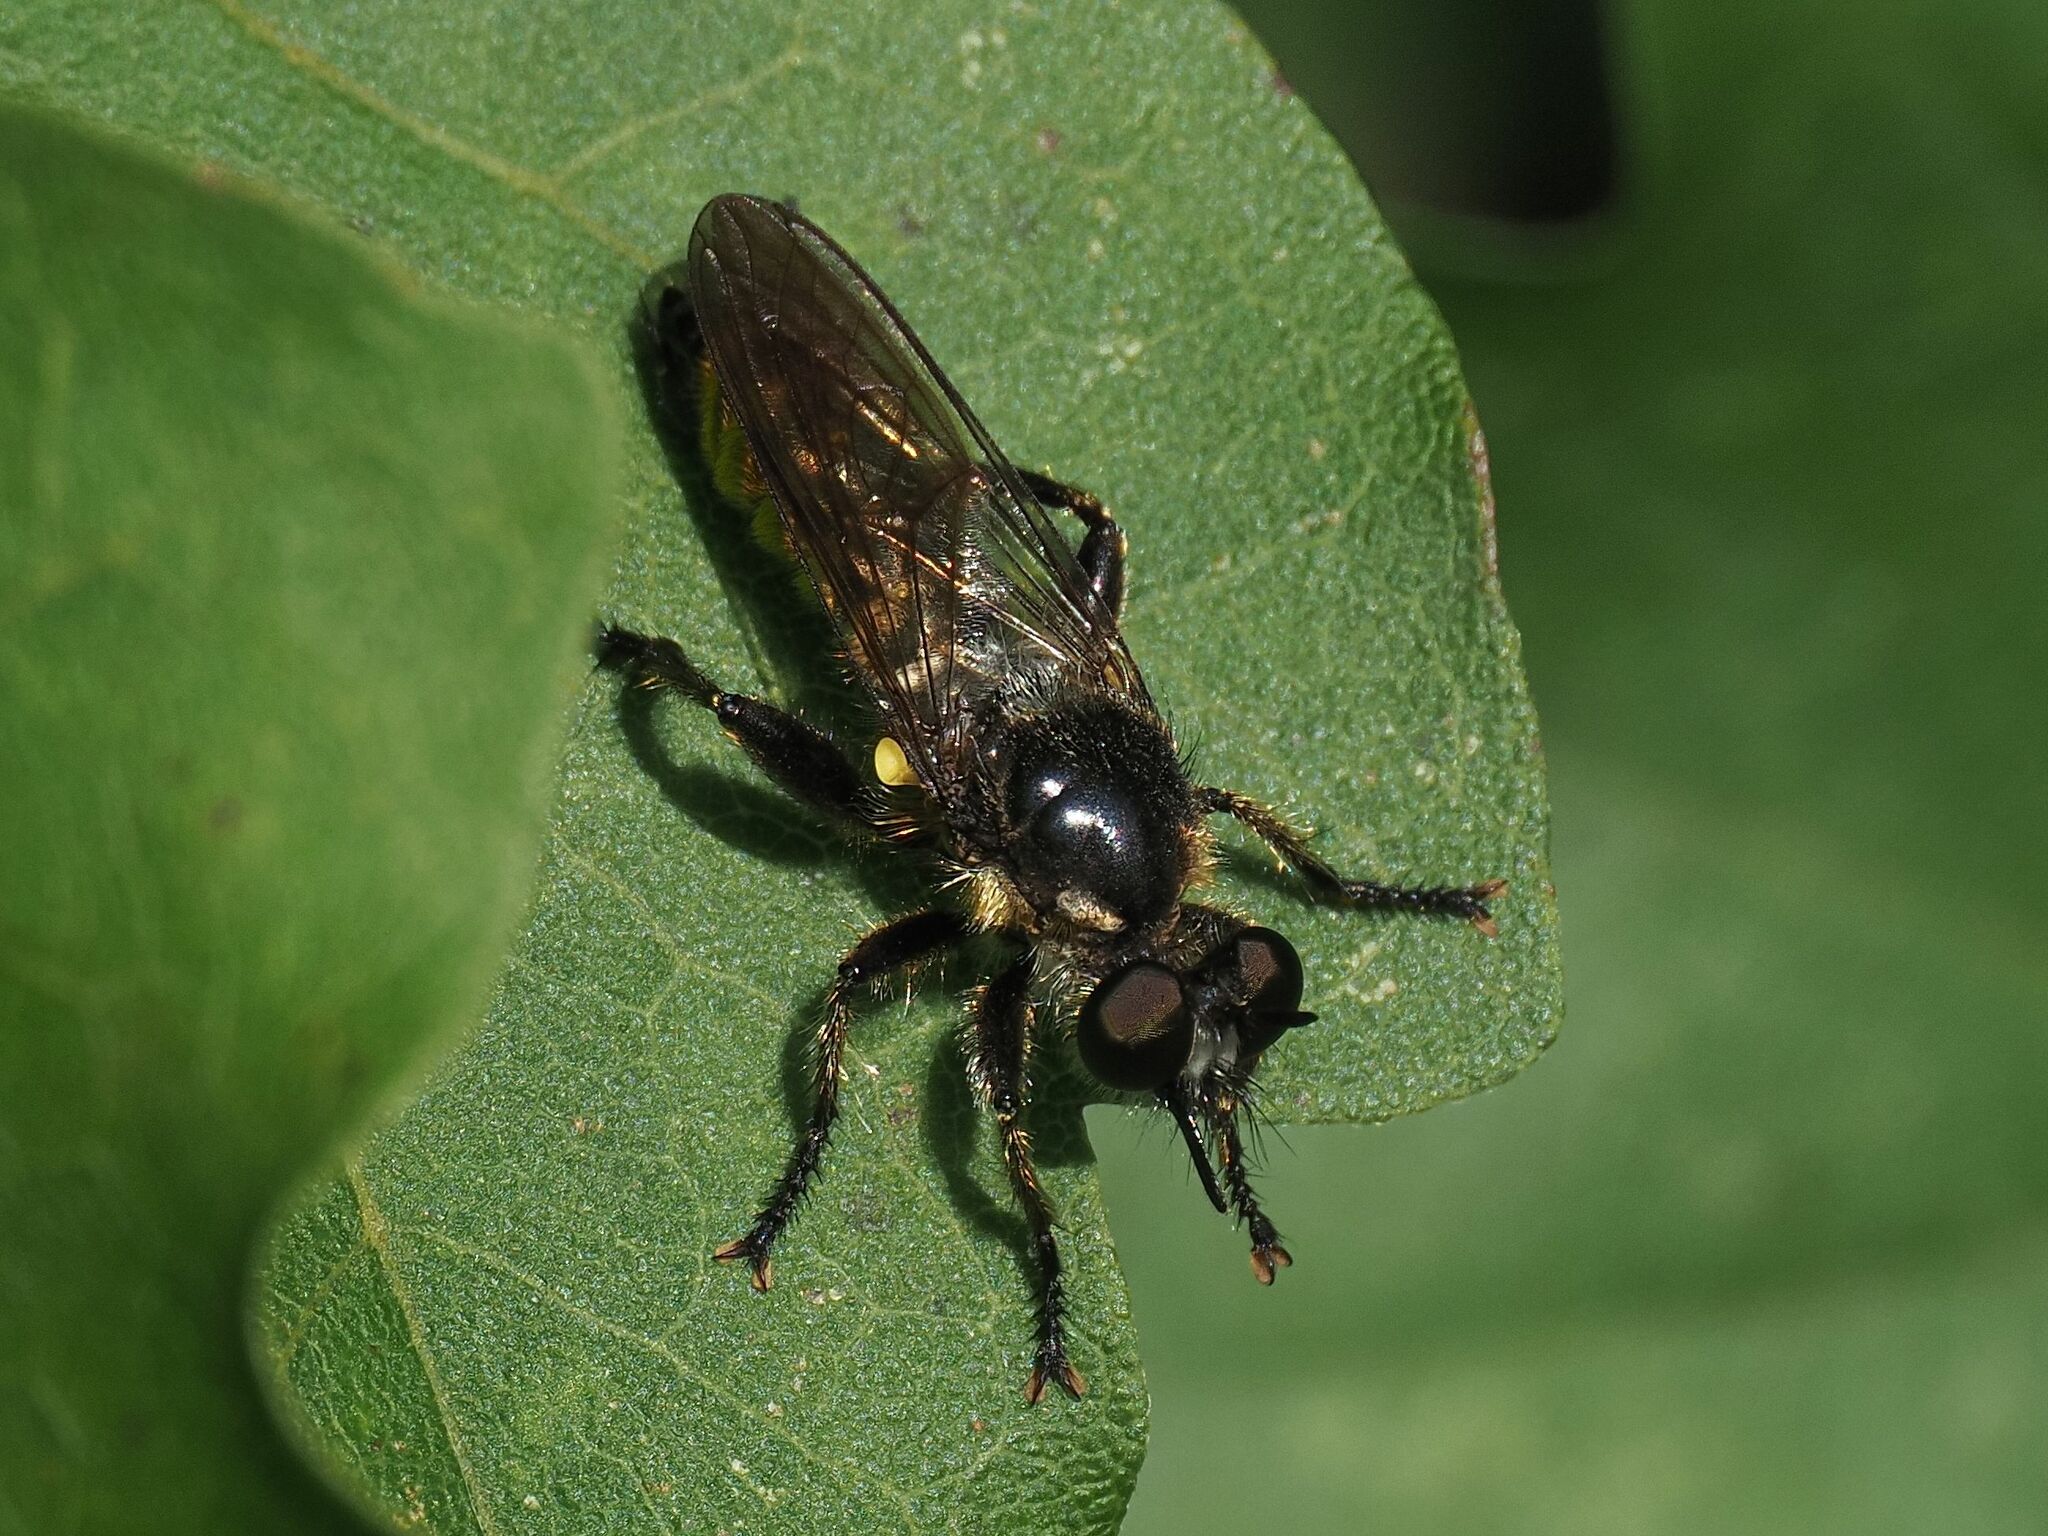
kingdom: Animalia
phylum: Arthropoda
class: Insecta
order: Diptera
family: Asilidae
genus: Lamyra
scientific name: Lamyra fimbriata
